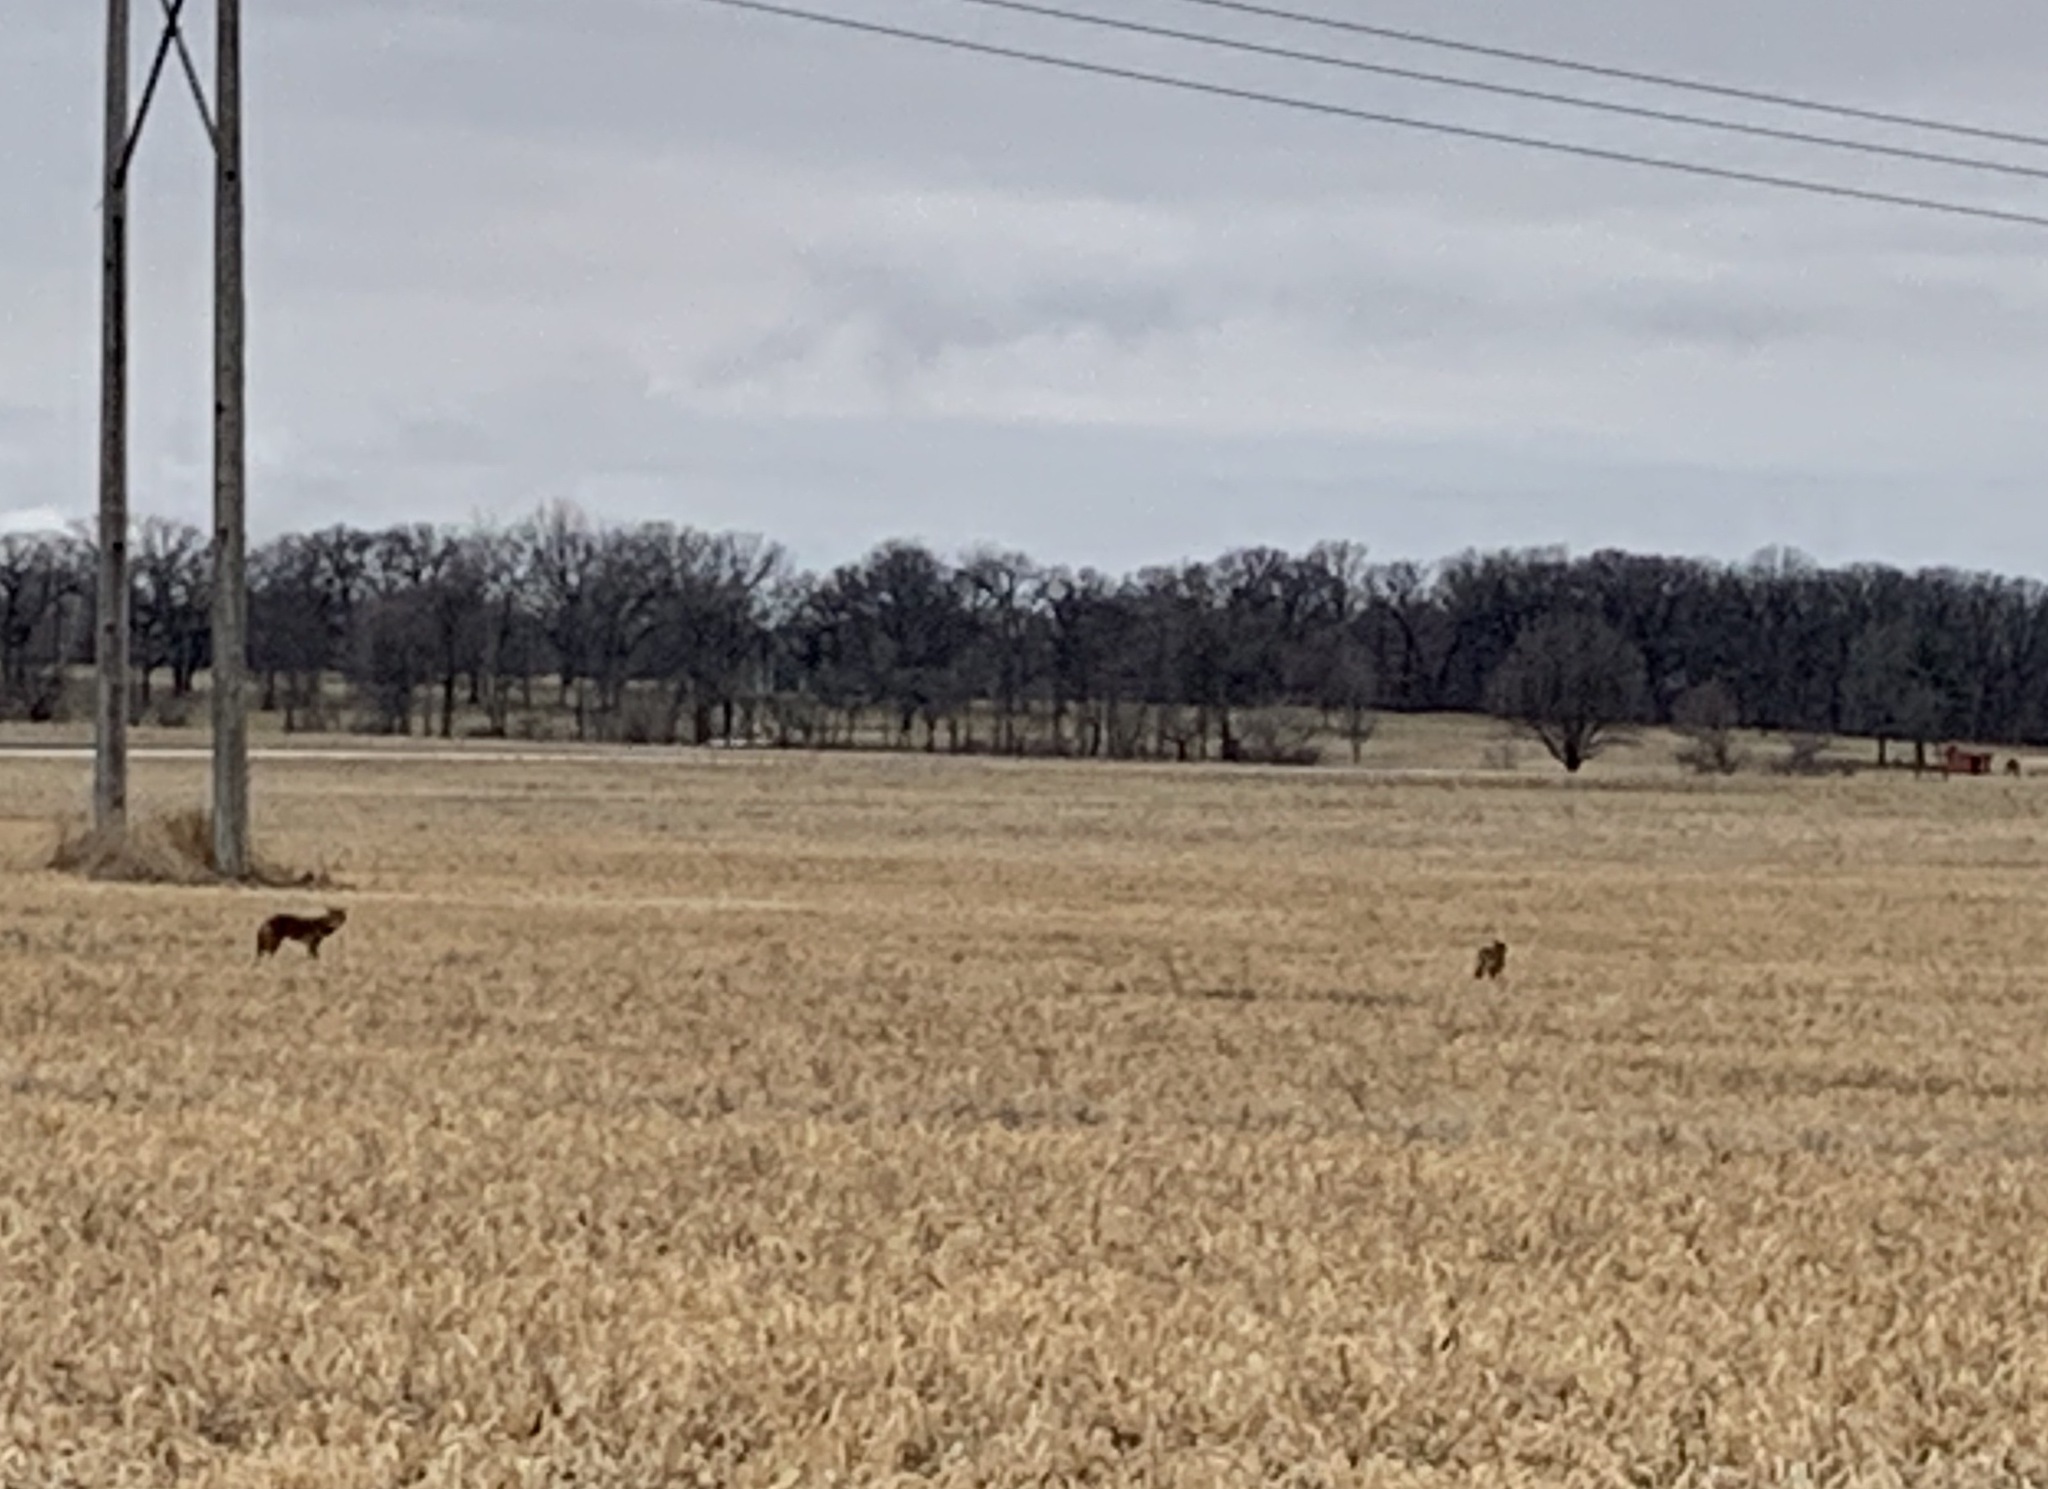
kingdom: Animalia
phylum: Chordata
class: Mammalia
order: Carnivora
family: Canidae
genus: Canis
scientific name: Canis latrans
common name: Coyote
